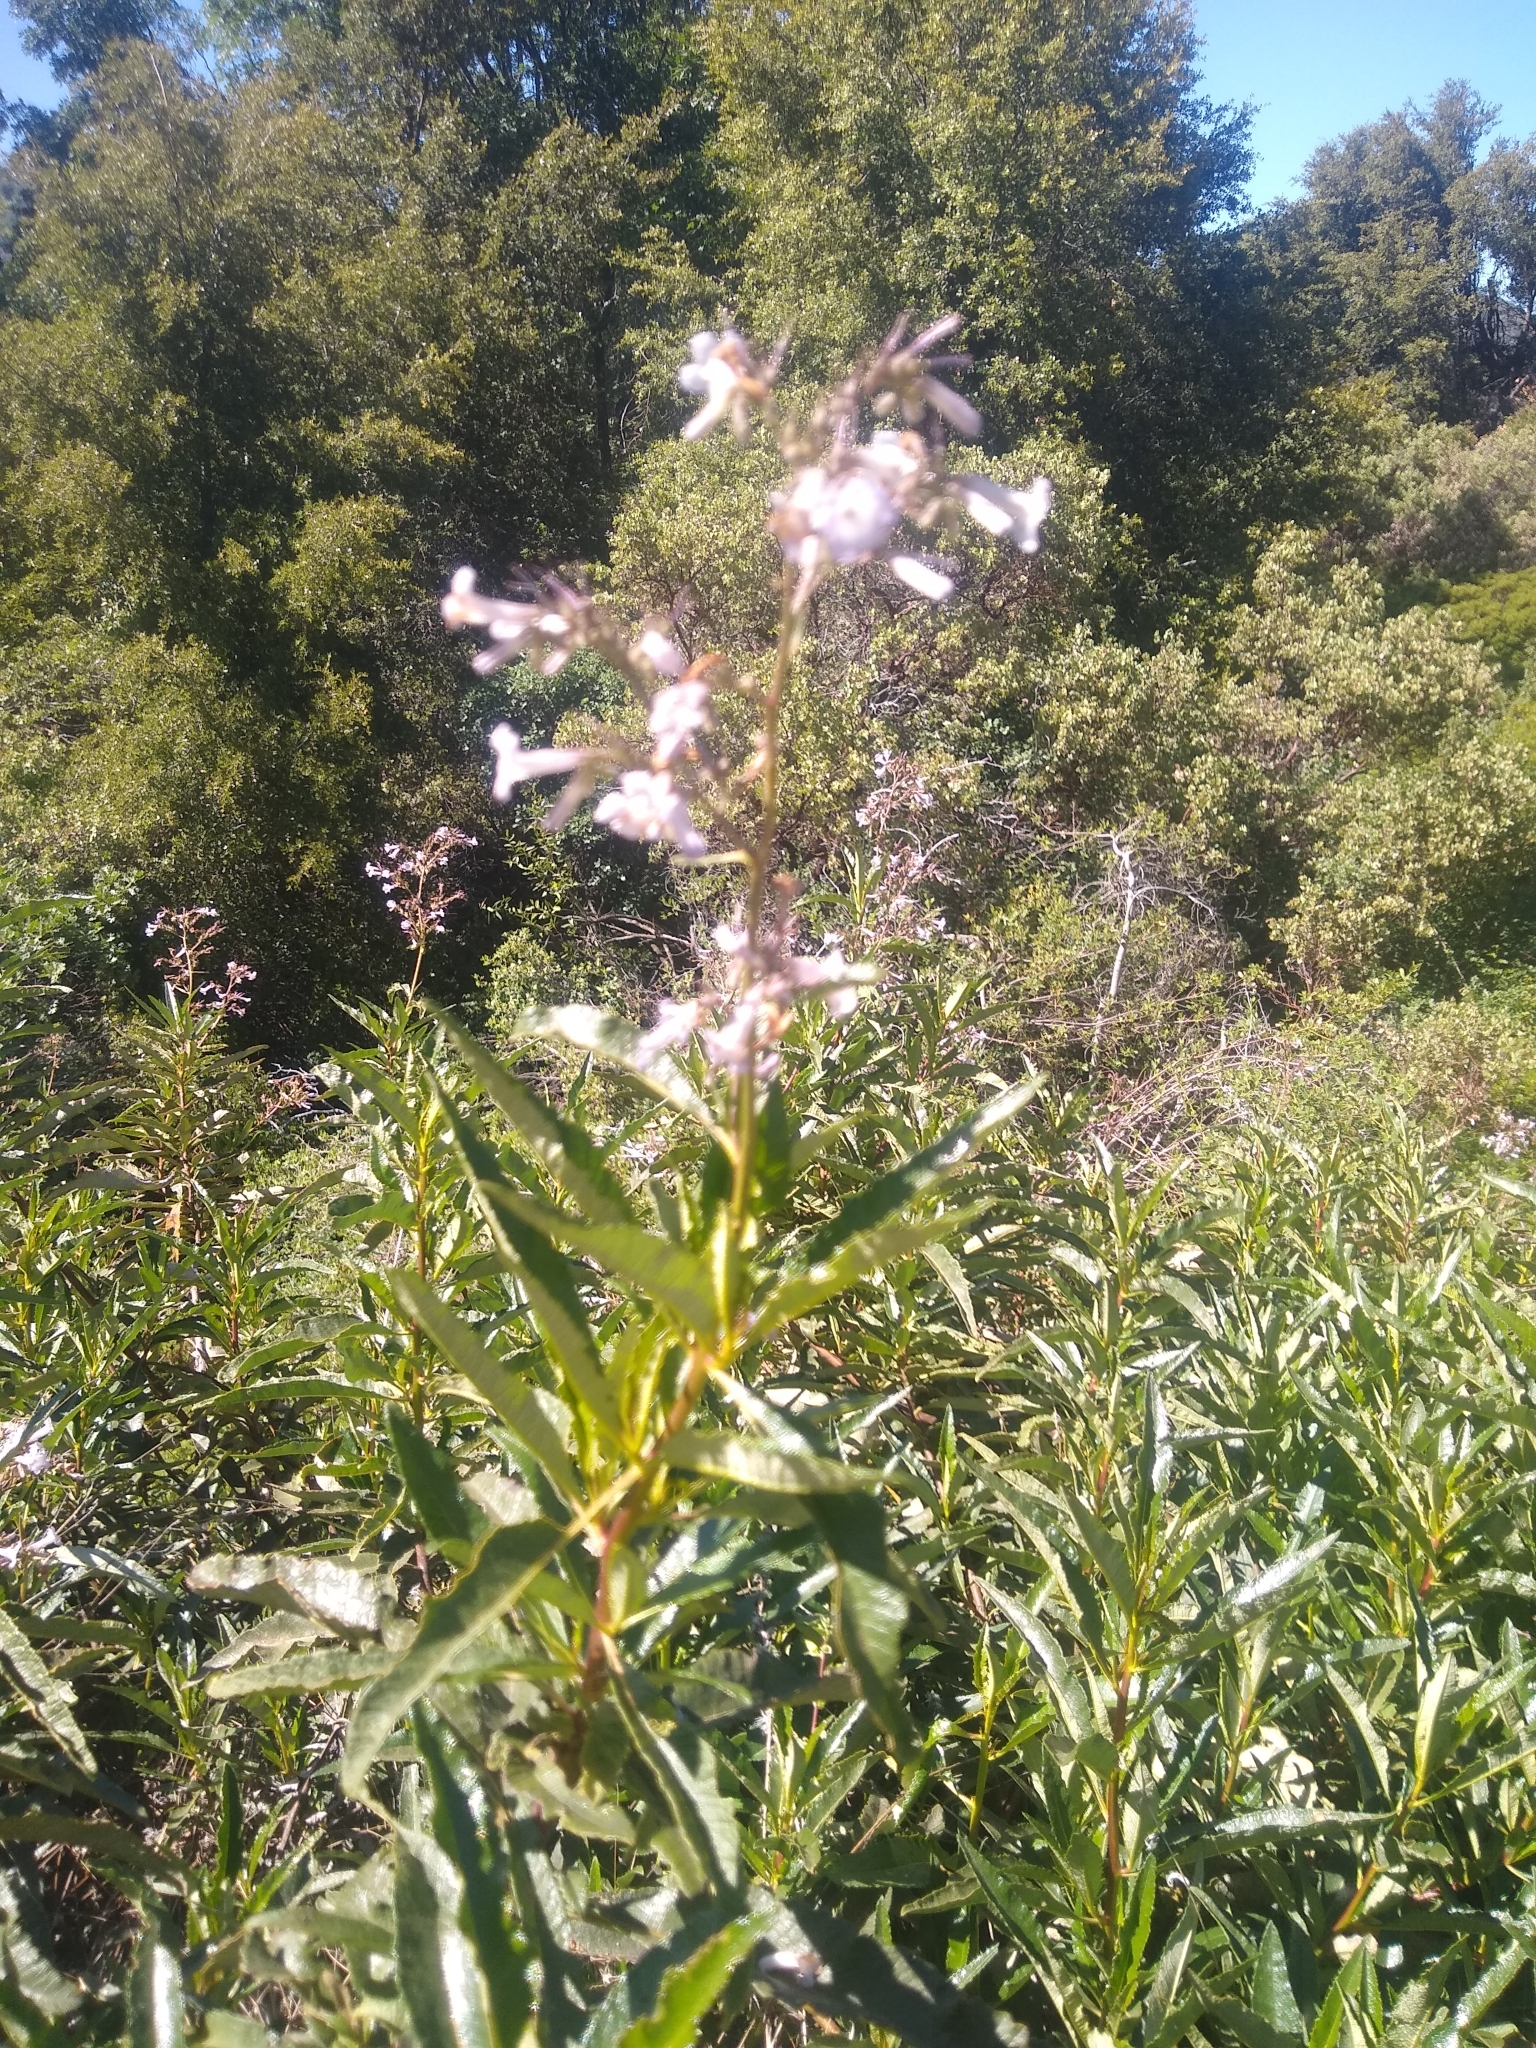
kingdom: Plantae
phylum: Tracheophyta
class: Magnoliopsida
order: Boraginales
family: Namaceae
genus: Eriodictyon
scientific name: Eriodictyon californicum
